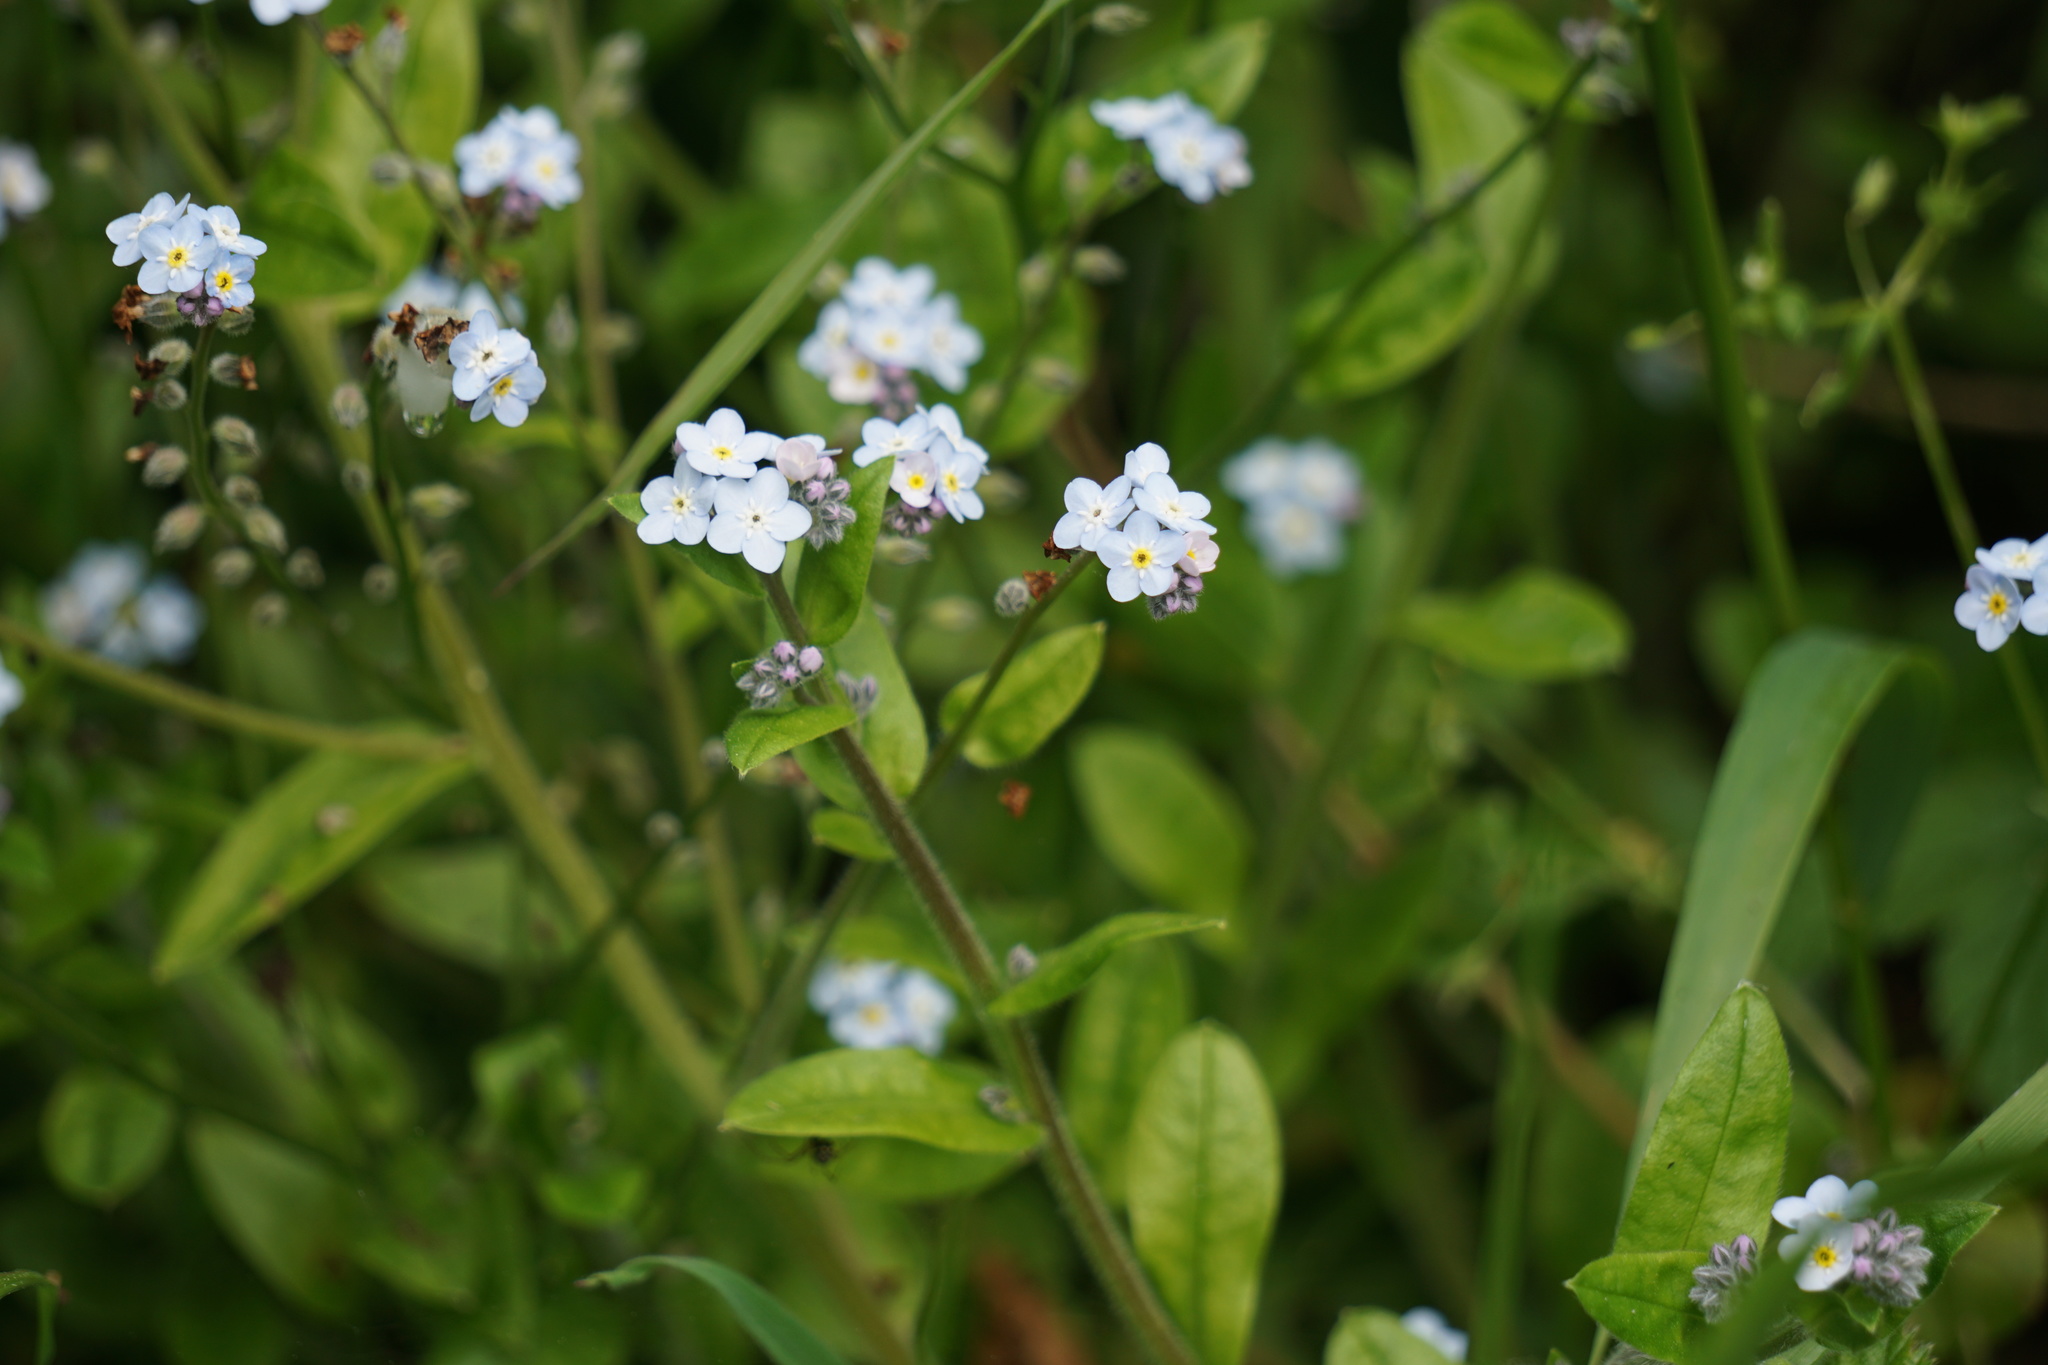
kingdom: Plantae
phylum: Tracheophyta
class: Magnoliopsida
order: Boraginales
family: Boraginaceae
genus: Myosotis
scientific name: Myosotis latifolia
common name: Broadleaf forget-me-not
